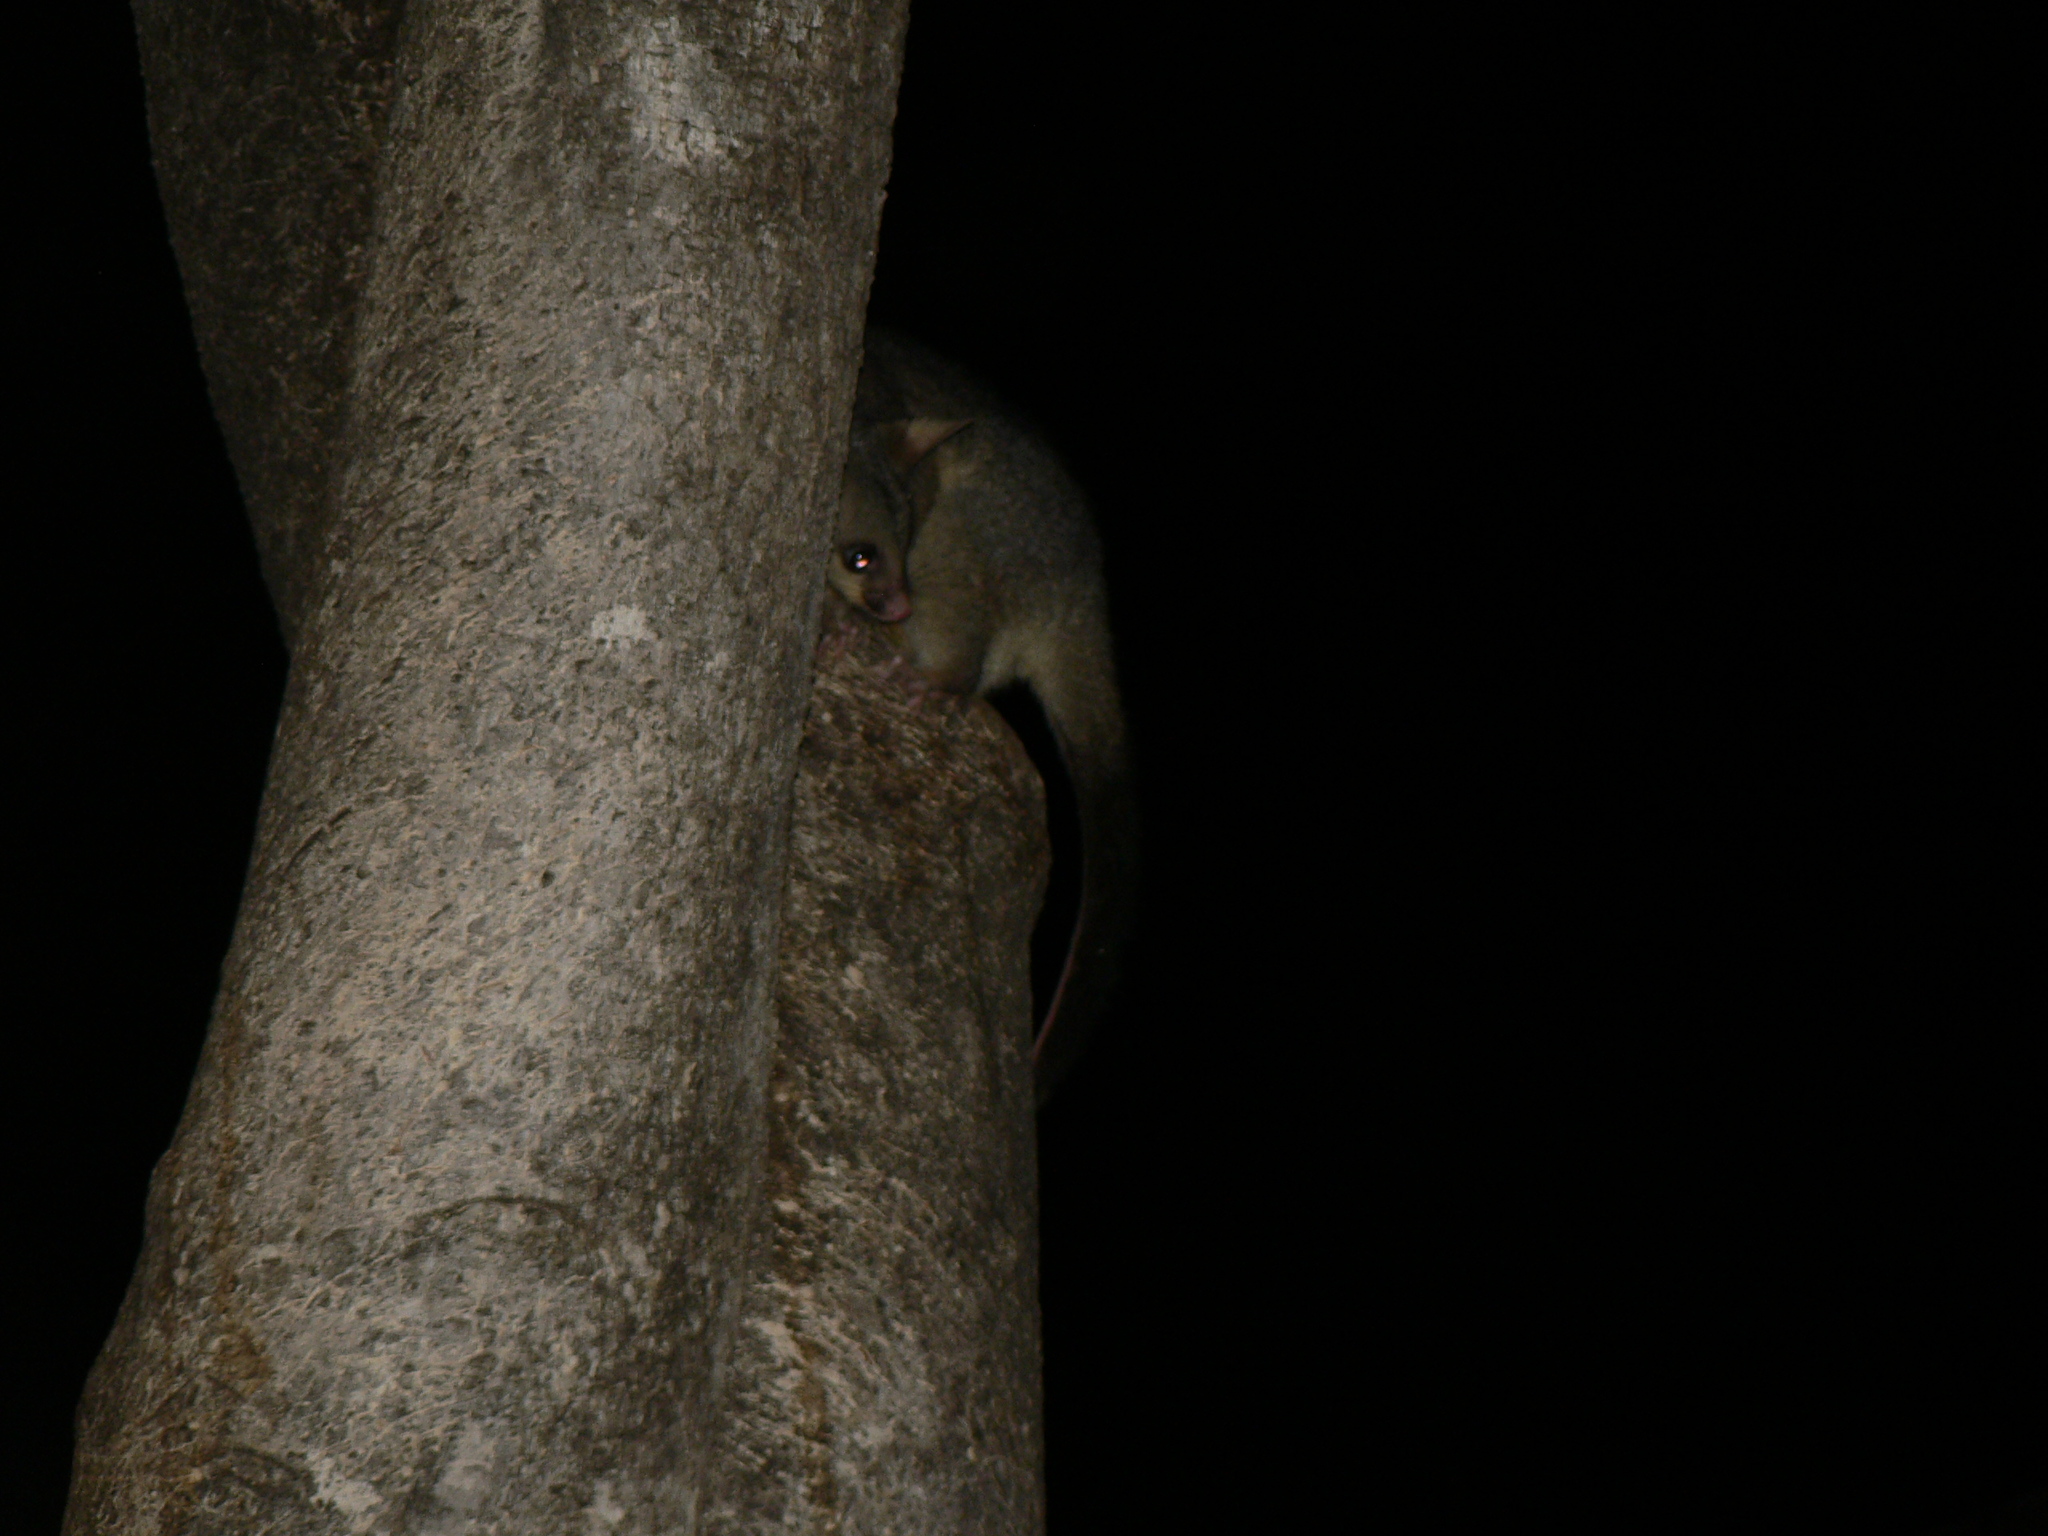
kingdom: Animalia
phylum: Chordata
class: Mammalia
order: Diprotodontia
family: Phalangeridae
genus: Trichosurus
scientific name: Trichosurus vulpecula
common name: Common brushtail
